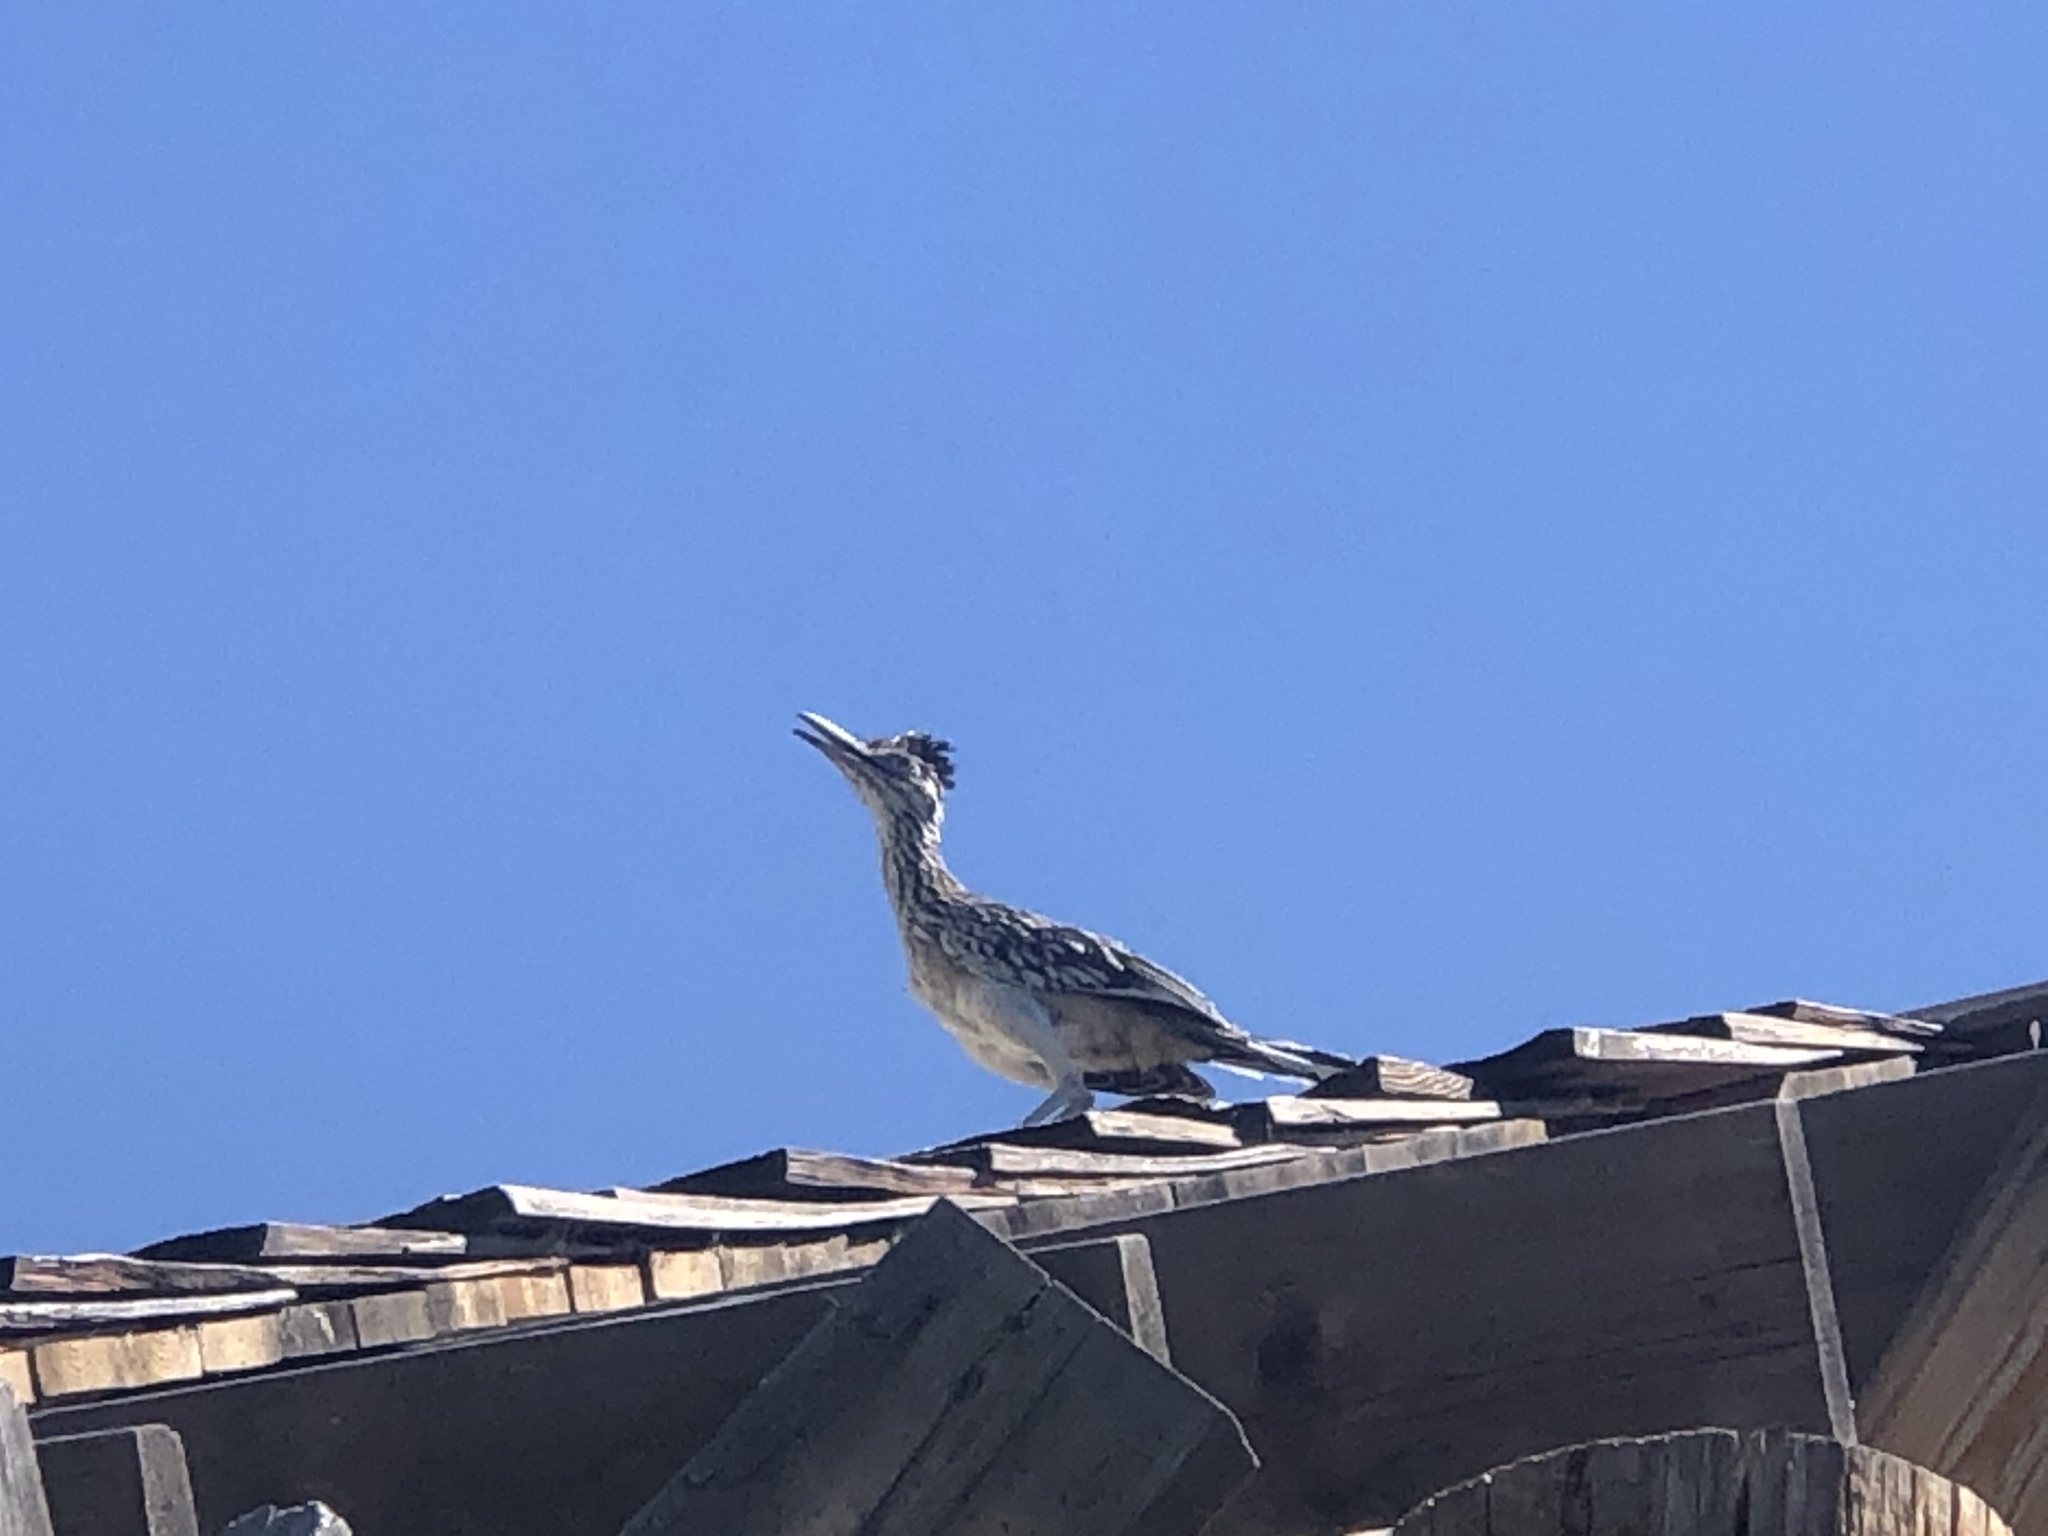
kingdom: Animalia
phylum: Chordata
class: Aves
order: Cuculiformes
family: Cuculidae
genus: Geococcyx
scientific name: Geococcyx californianus
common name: Greater roadrunner
